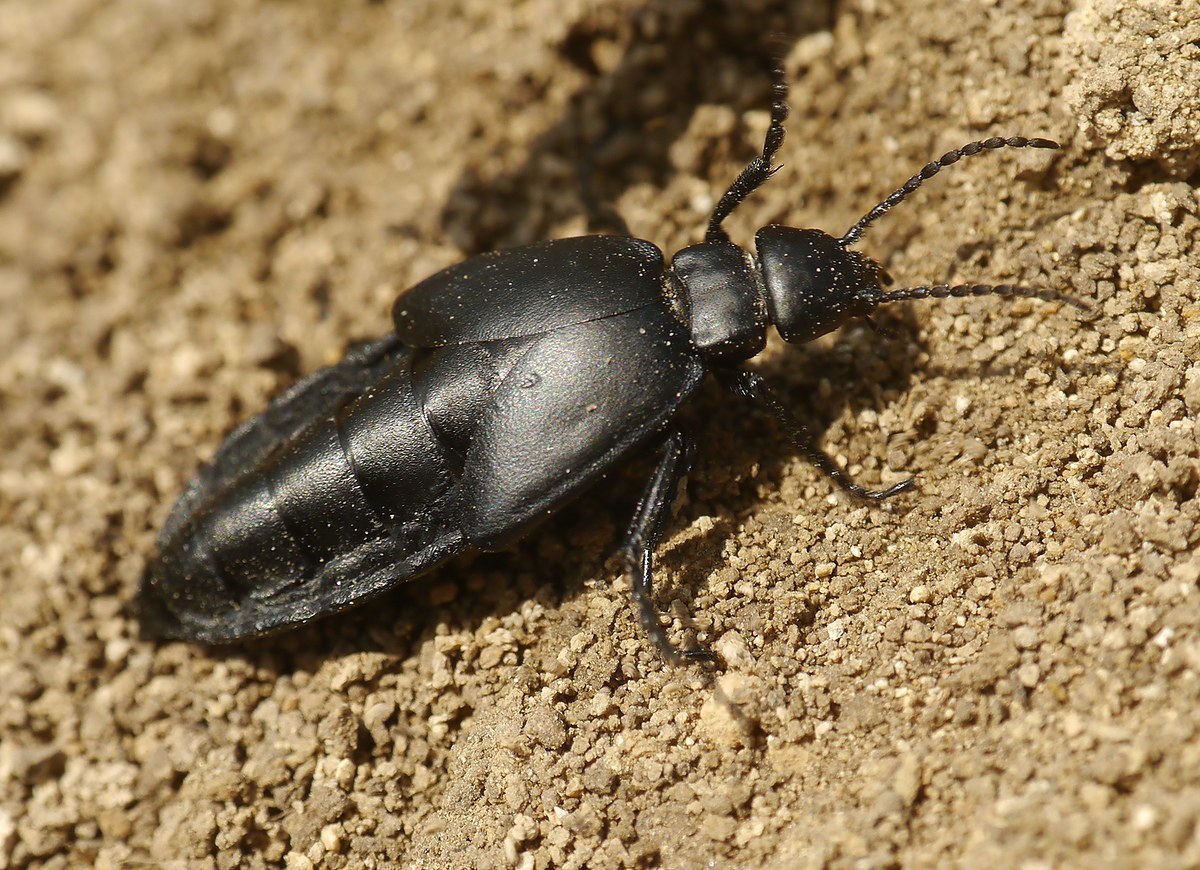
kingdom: Animalia
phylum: Arthropoda
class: Insecta
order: Coleoptera
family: Meloidae
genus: Meloe
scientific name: Meloe uralensis
